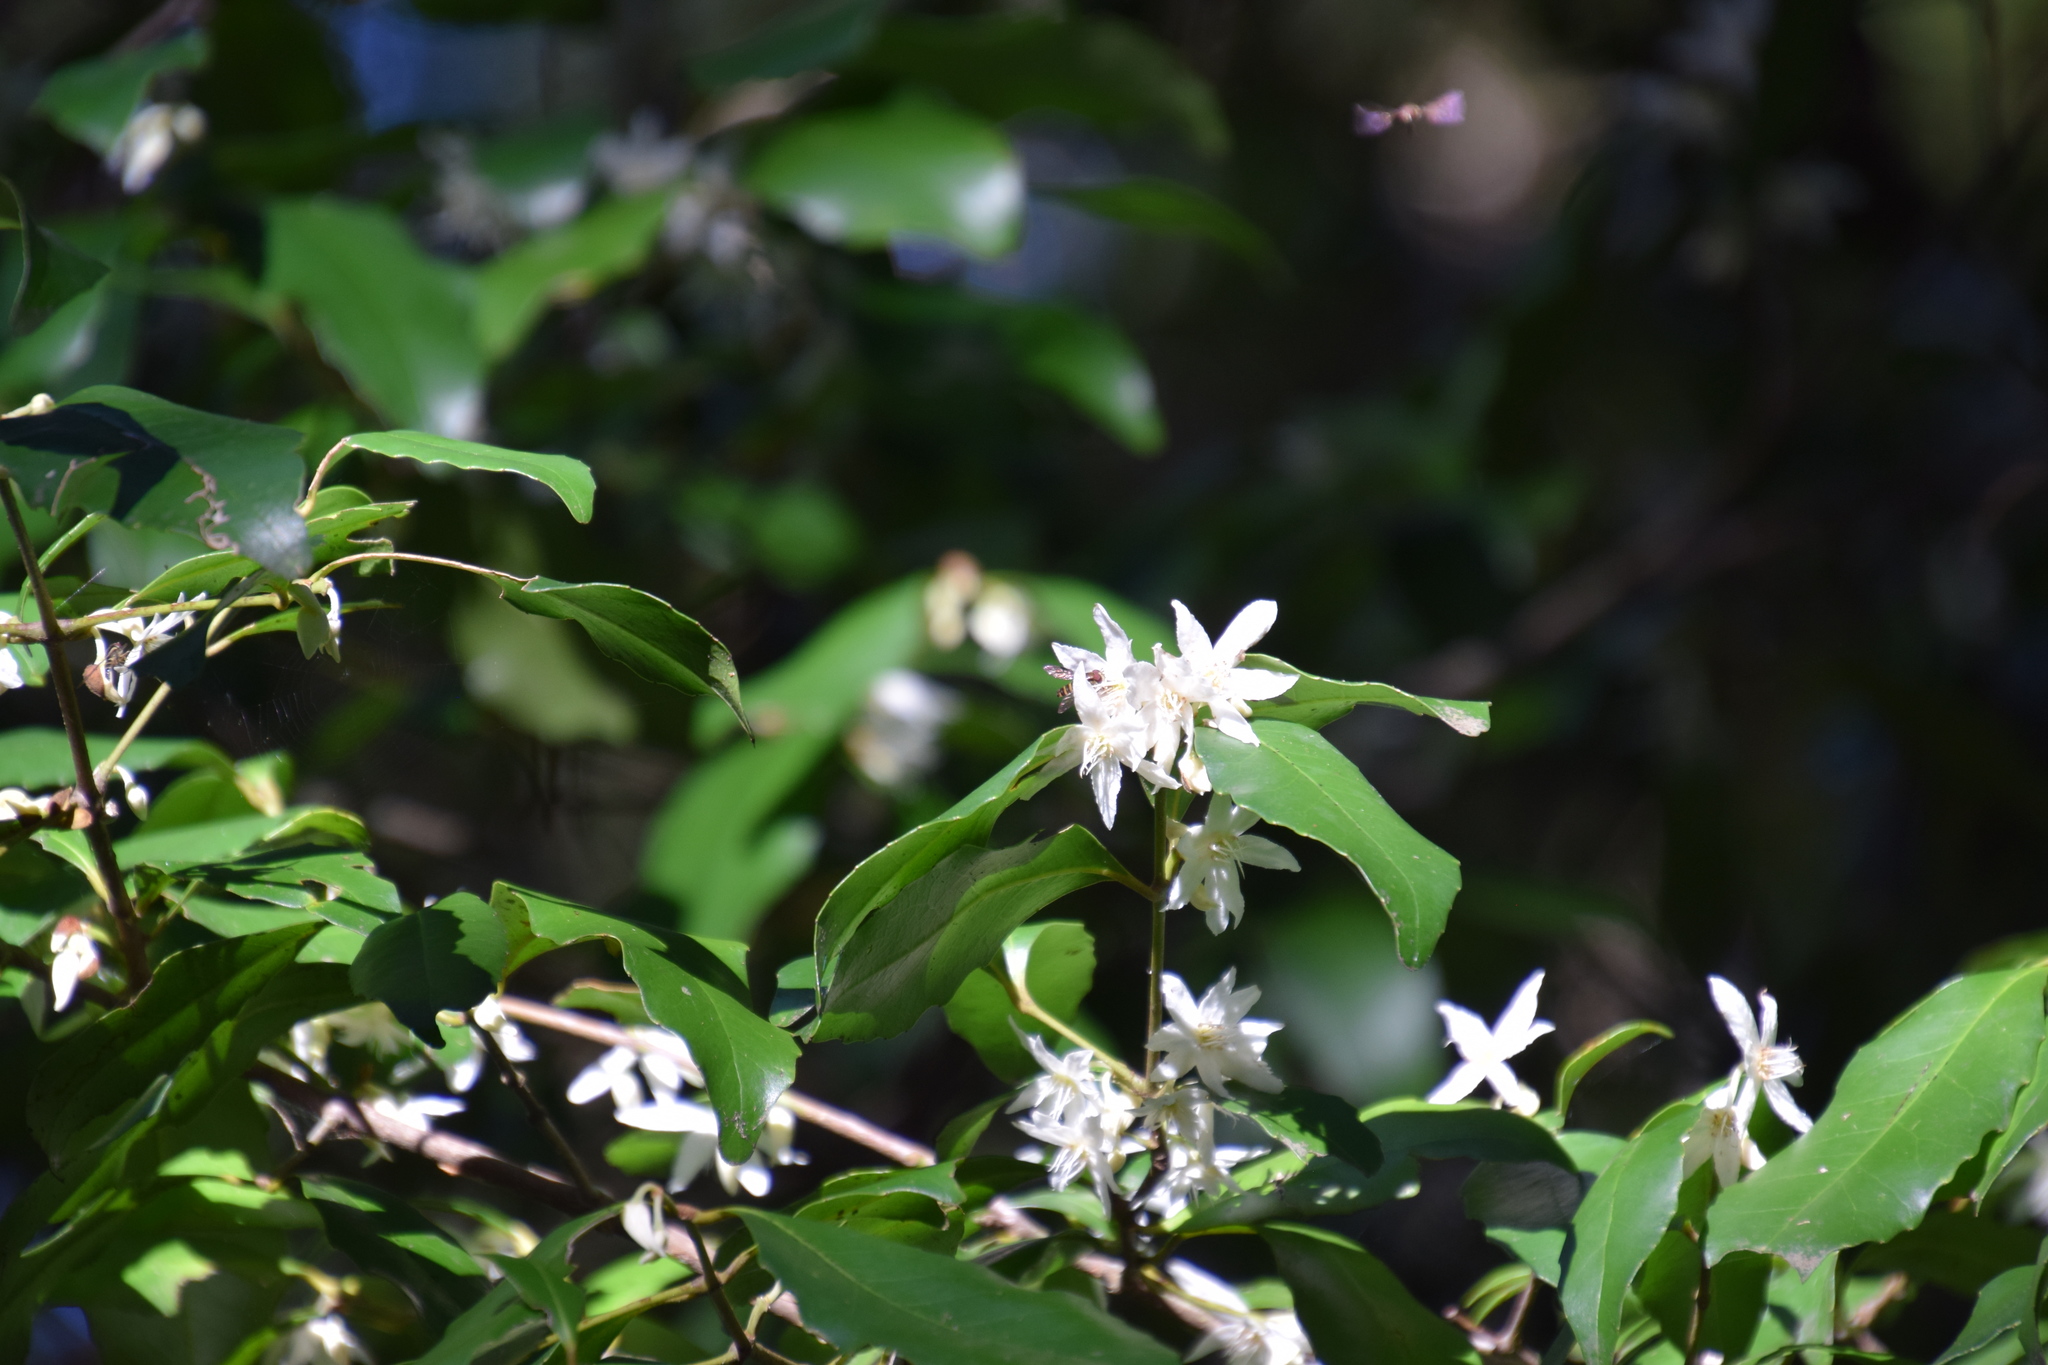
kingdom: Plantae
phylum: Tracheophyta
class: Magnoliopsida
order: Laurales
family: Atherospermataceae
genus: Doryphora
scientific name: Doryphora sassafras
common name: Golden-sassafras
